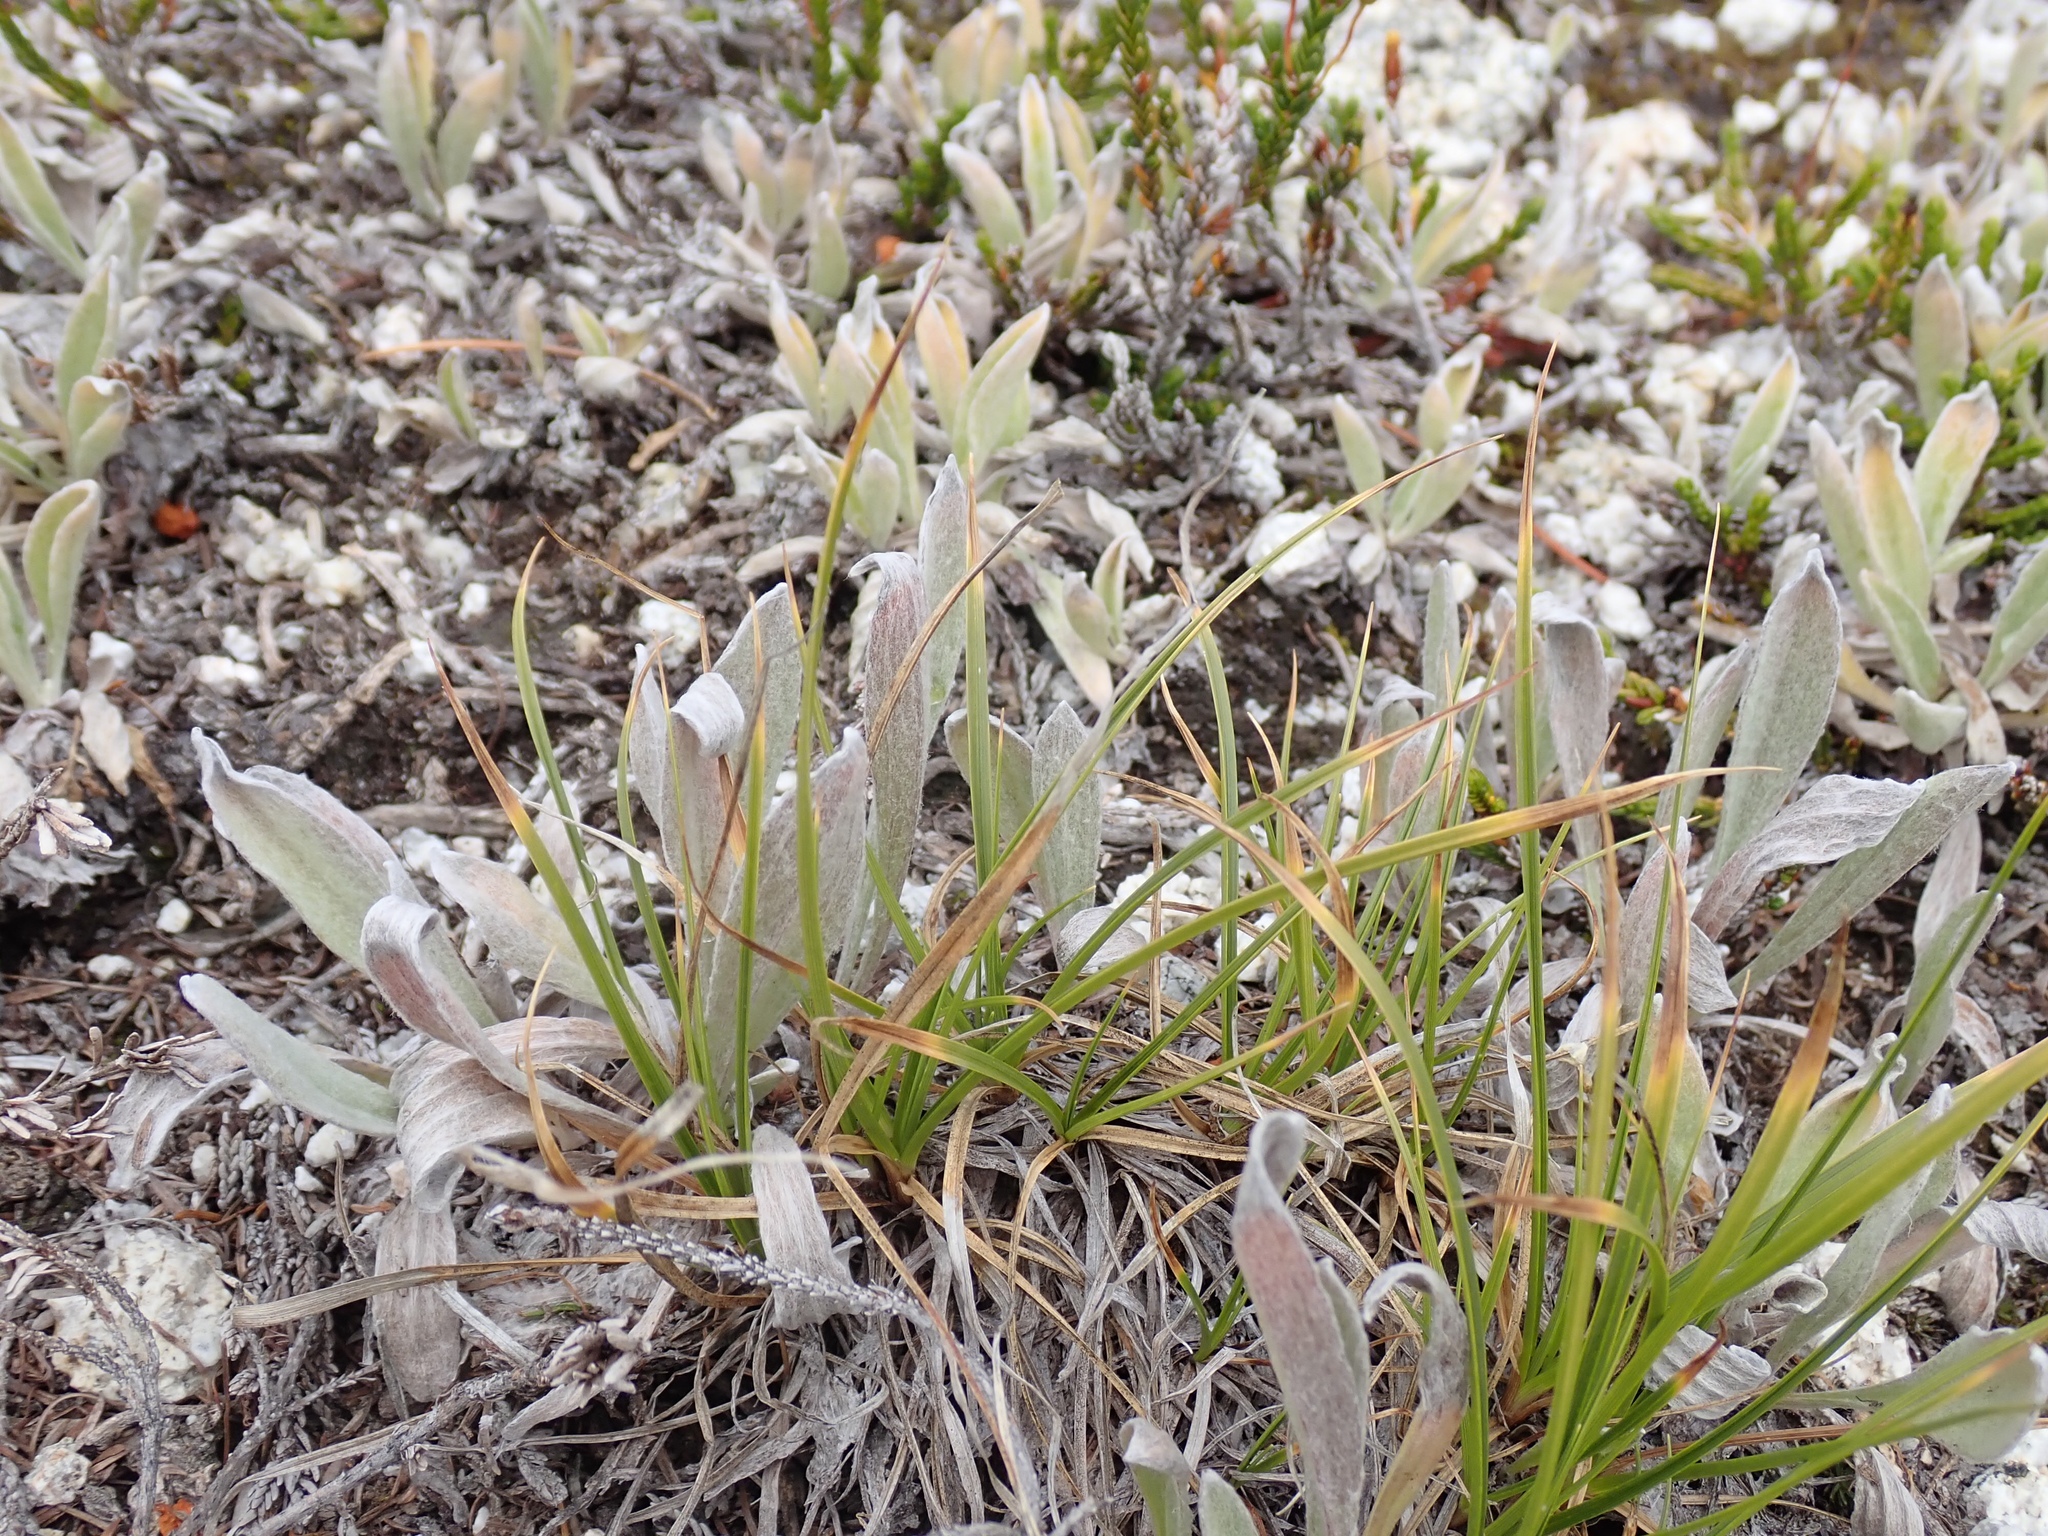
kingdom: Plantae
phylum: Tracheophyta
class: Magnoliopsida
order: Asterales
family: Asteraceae
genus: Antennaria
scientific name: Antennaria lanata
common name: Woolly pussytoes
